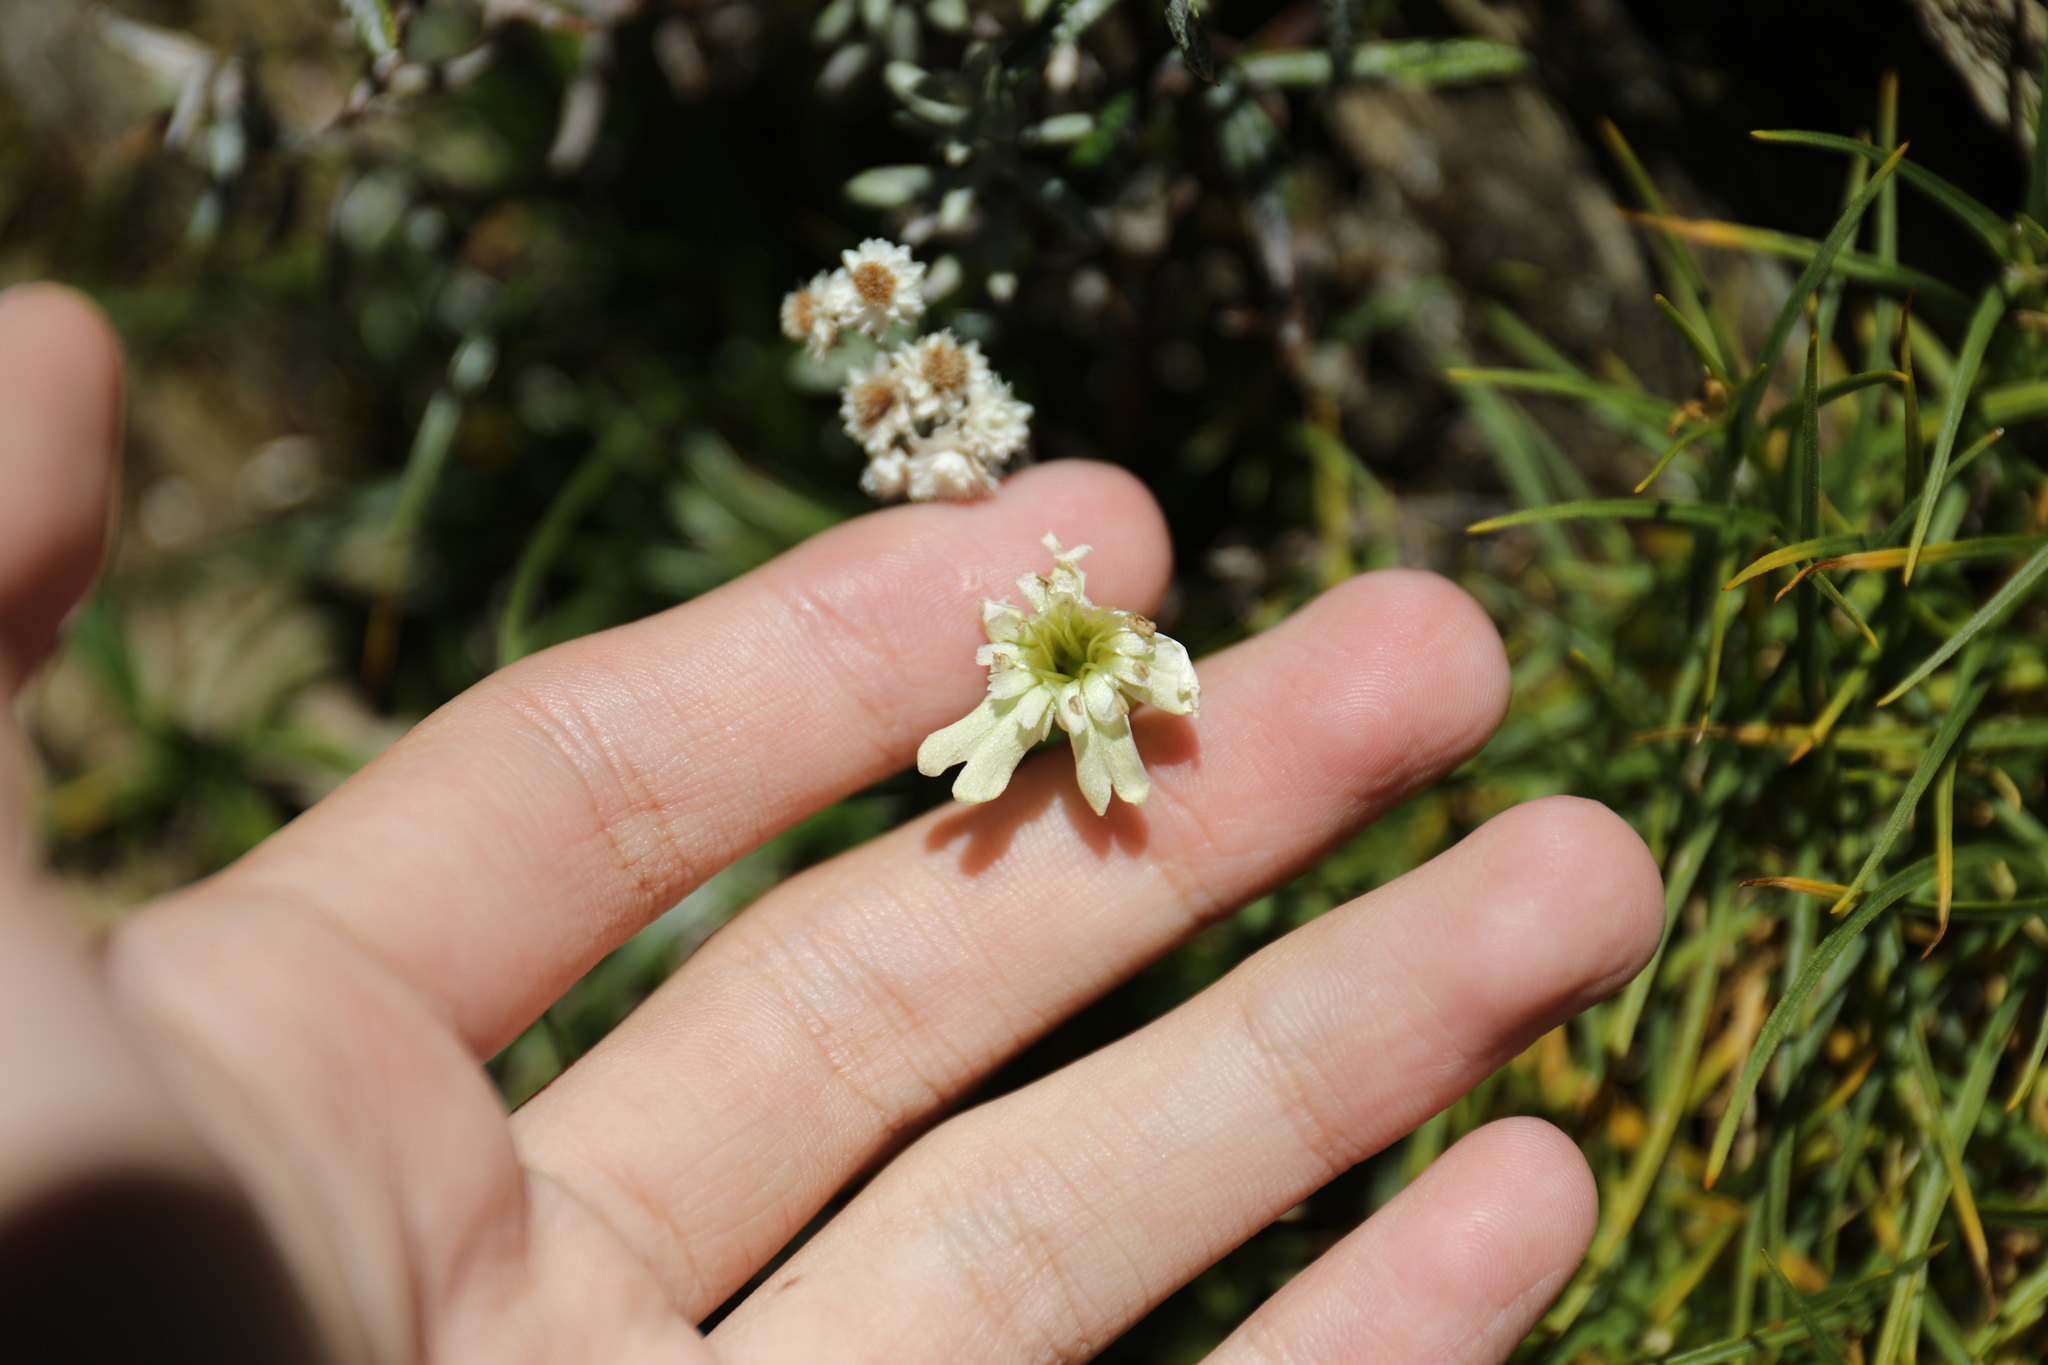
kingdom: Plantae
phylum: Tracheophyta
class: Magnoliopsida
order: Caryophyllales
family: Caryophyllaceae
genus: Silene
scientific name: Silene morrisonmontana
